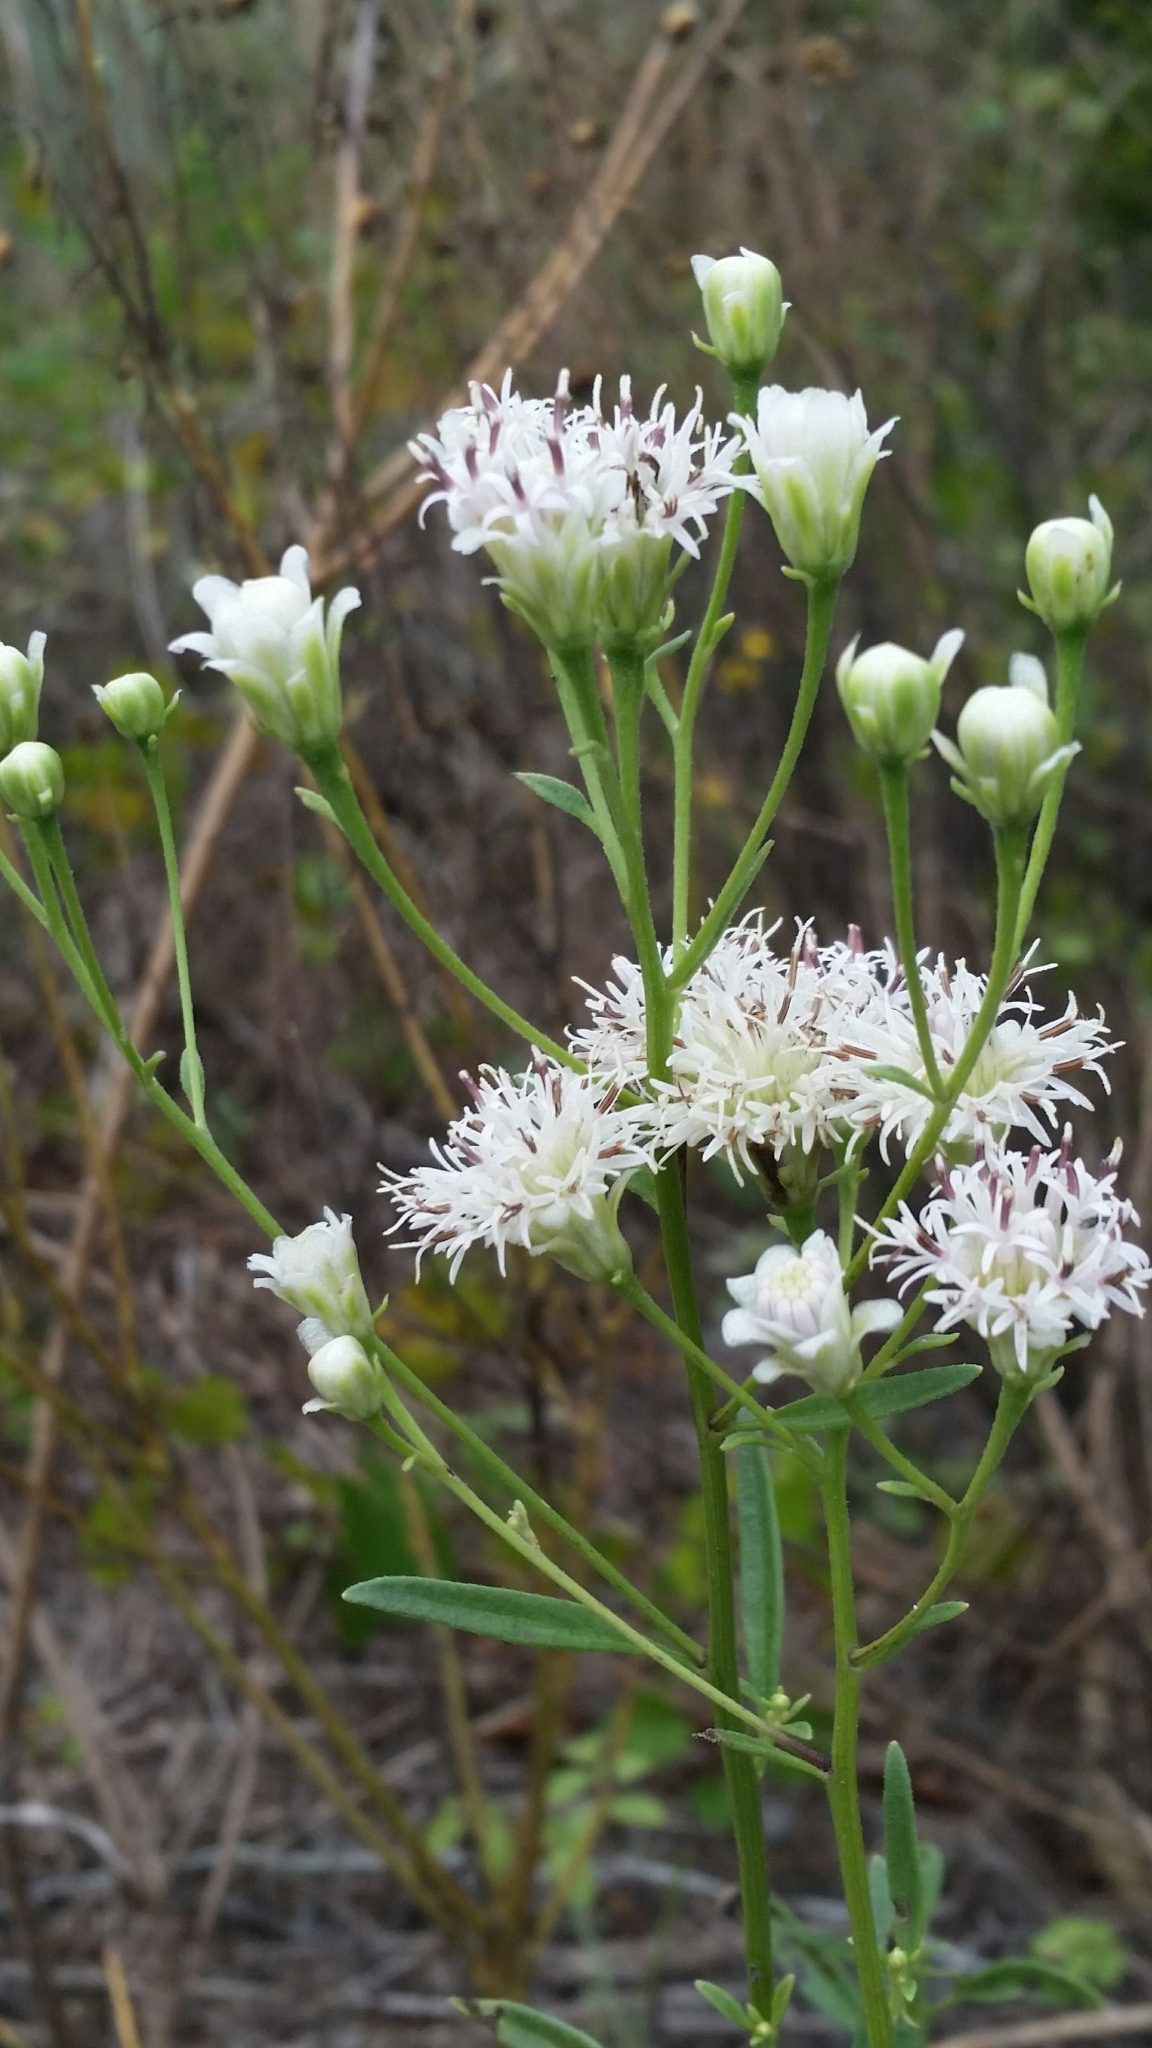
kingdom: Plantae
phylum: Tracheophyta
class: Magnoliopsida
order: Asterales
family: Asteraceae
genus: Palafoxia
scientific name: Palafoxia integrifolia
